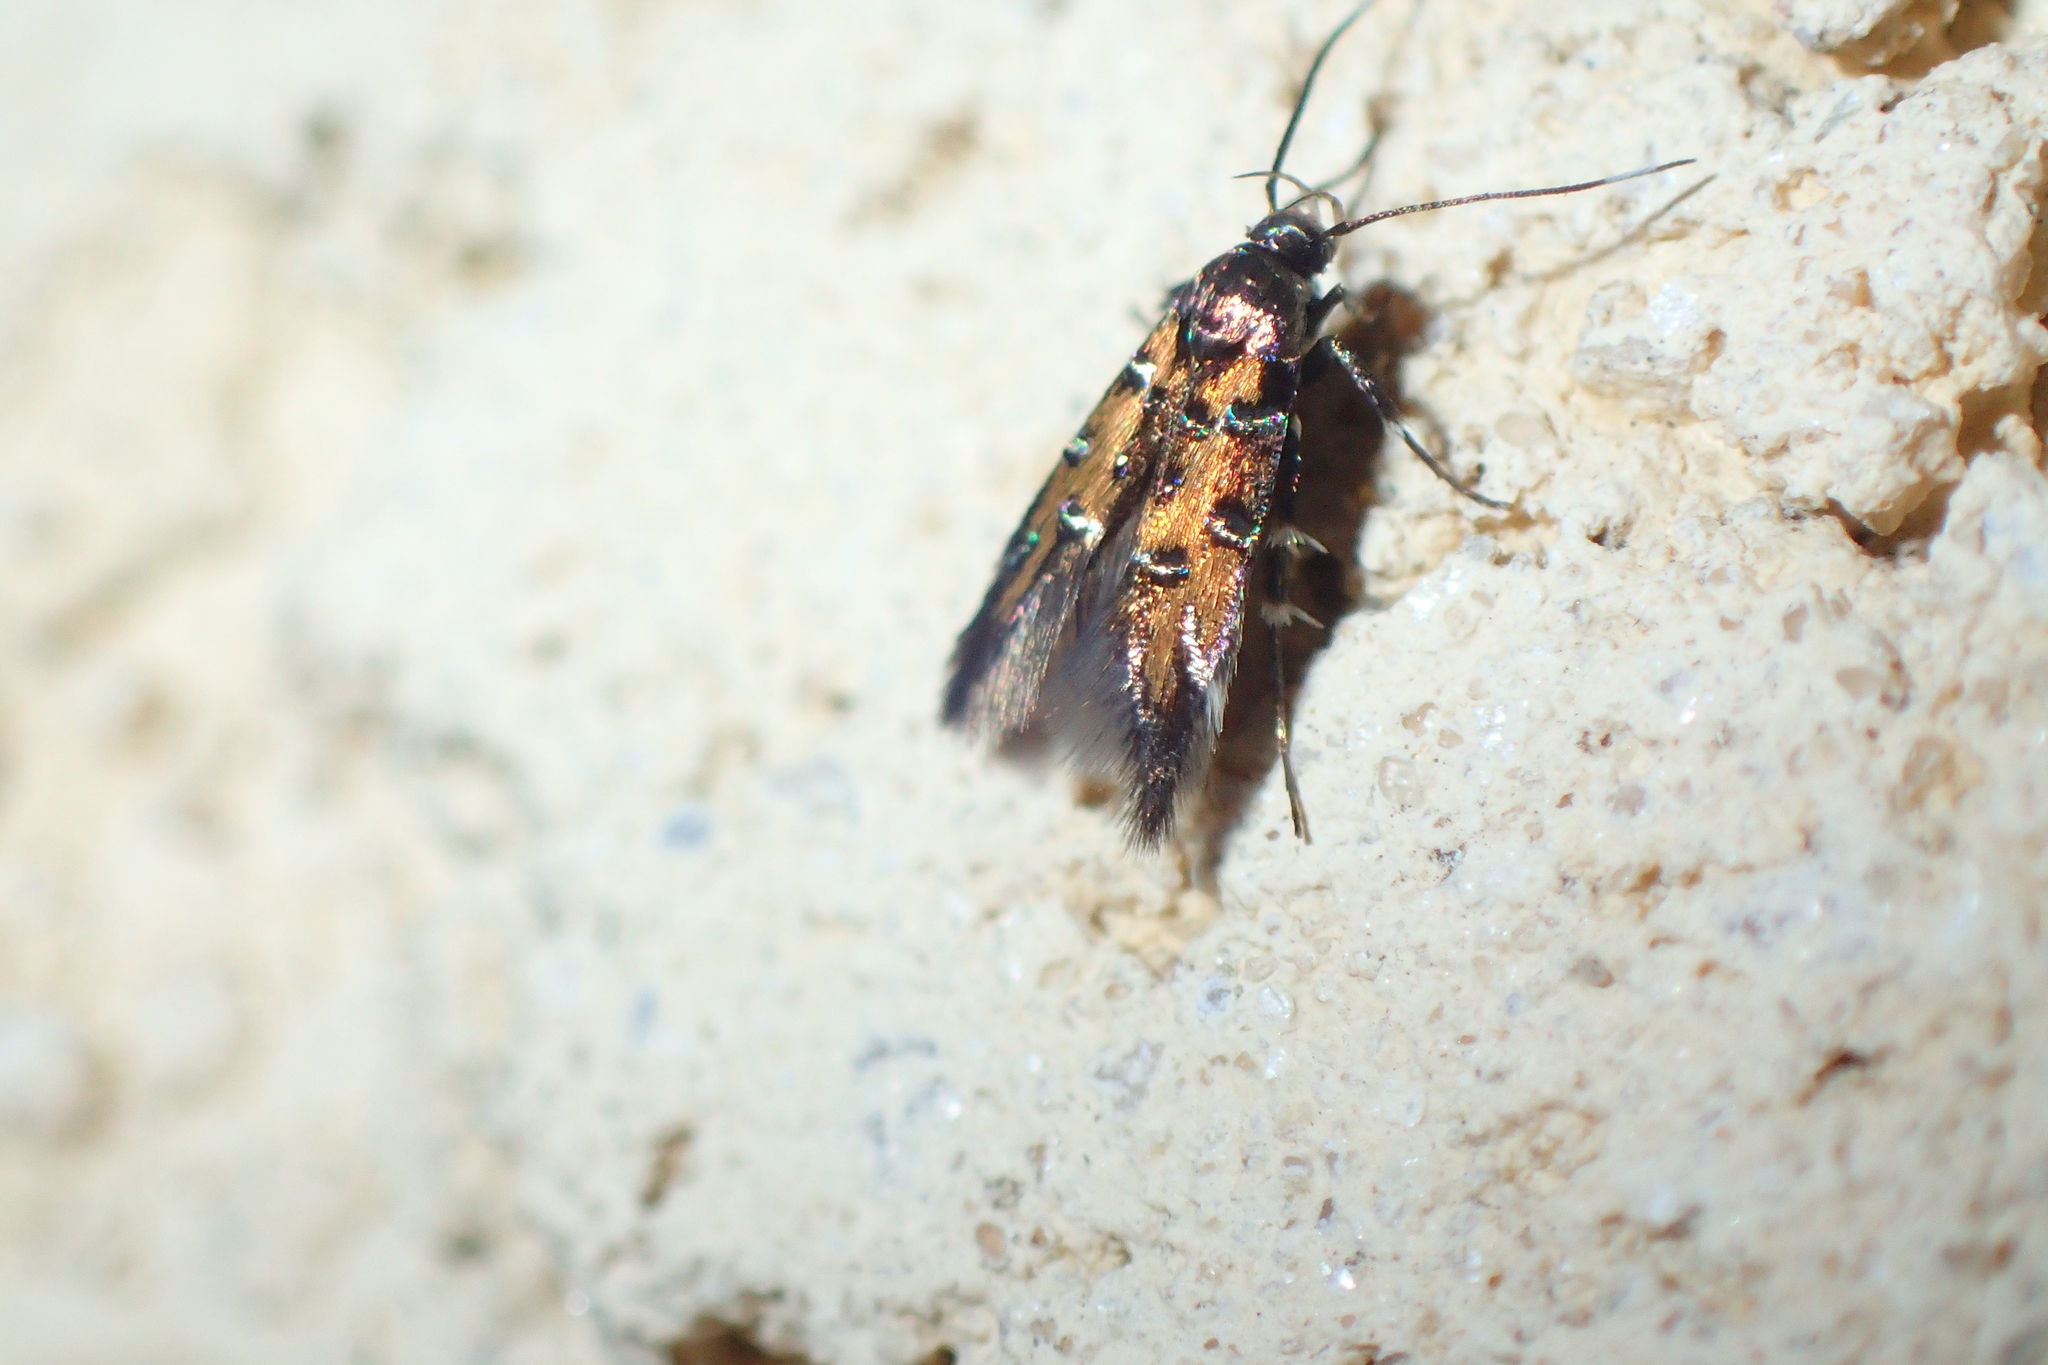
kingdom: Animalia
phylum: Arthropoda
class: Insecta
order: Lepidoptera
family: Cosmopterigidae
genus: Pancalia
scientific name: Pancalia leuwenhoekella
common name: Violet cosmet
